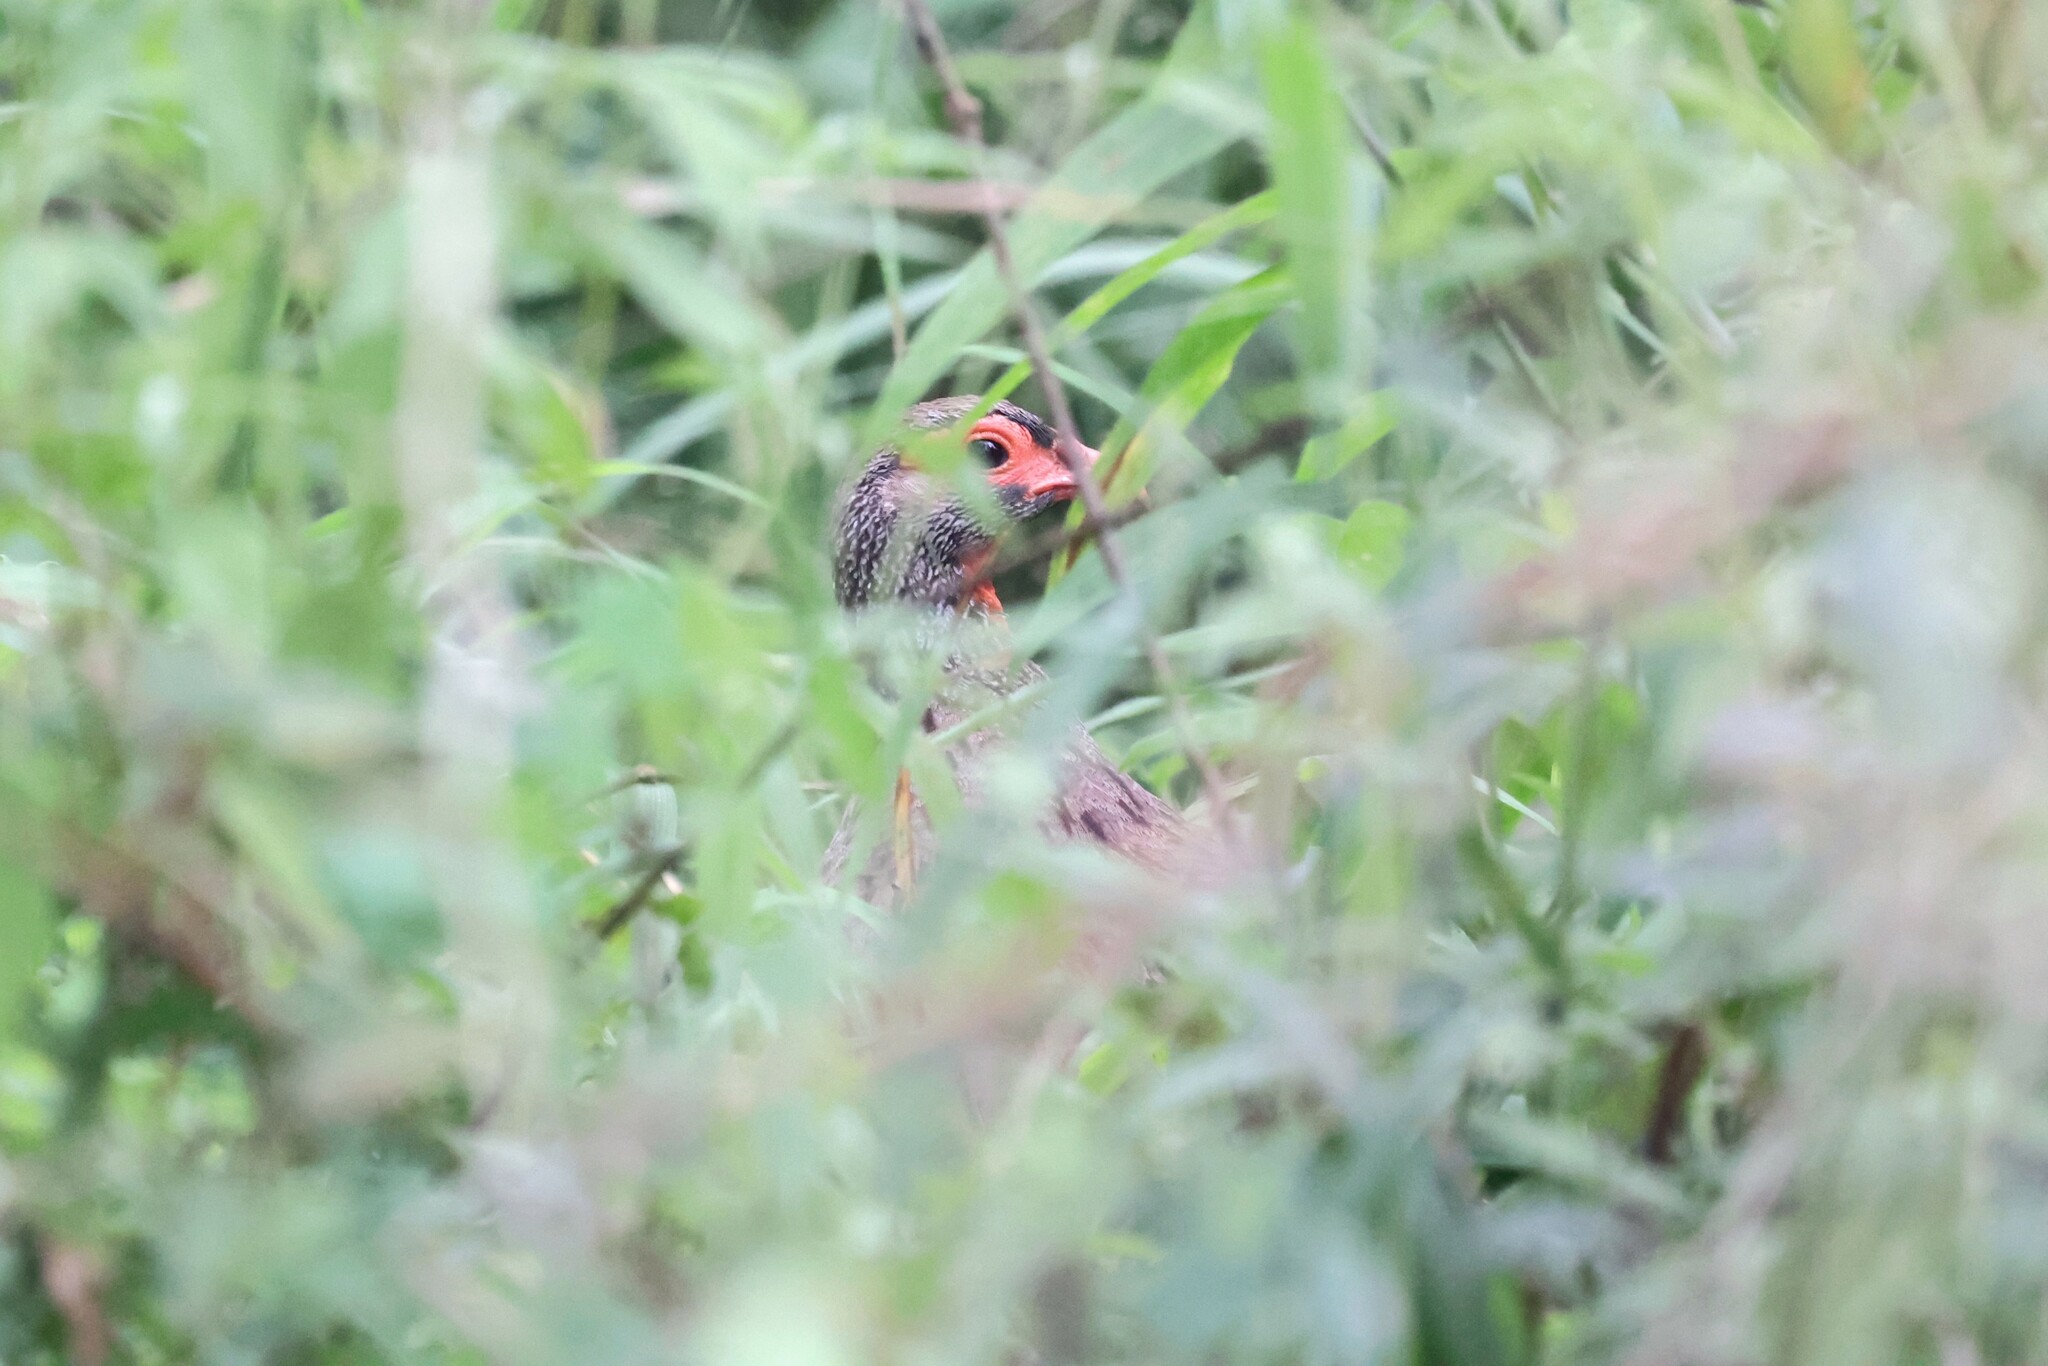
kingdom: Animalia
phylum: Chordata
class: Aves
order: Galliformes
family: Phasianidae
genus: Pternistis
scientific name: Pternistis afer
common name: Red-necked spurfowl
